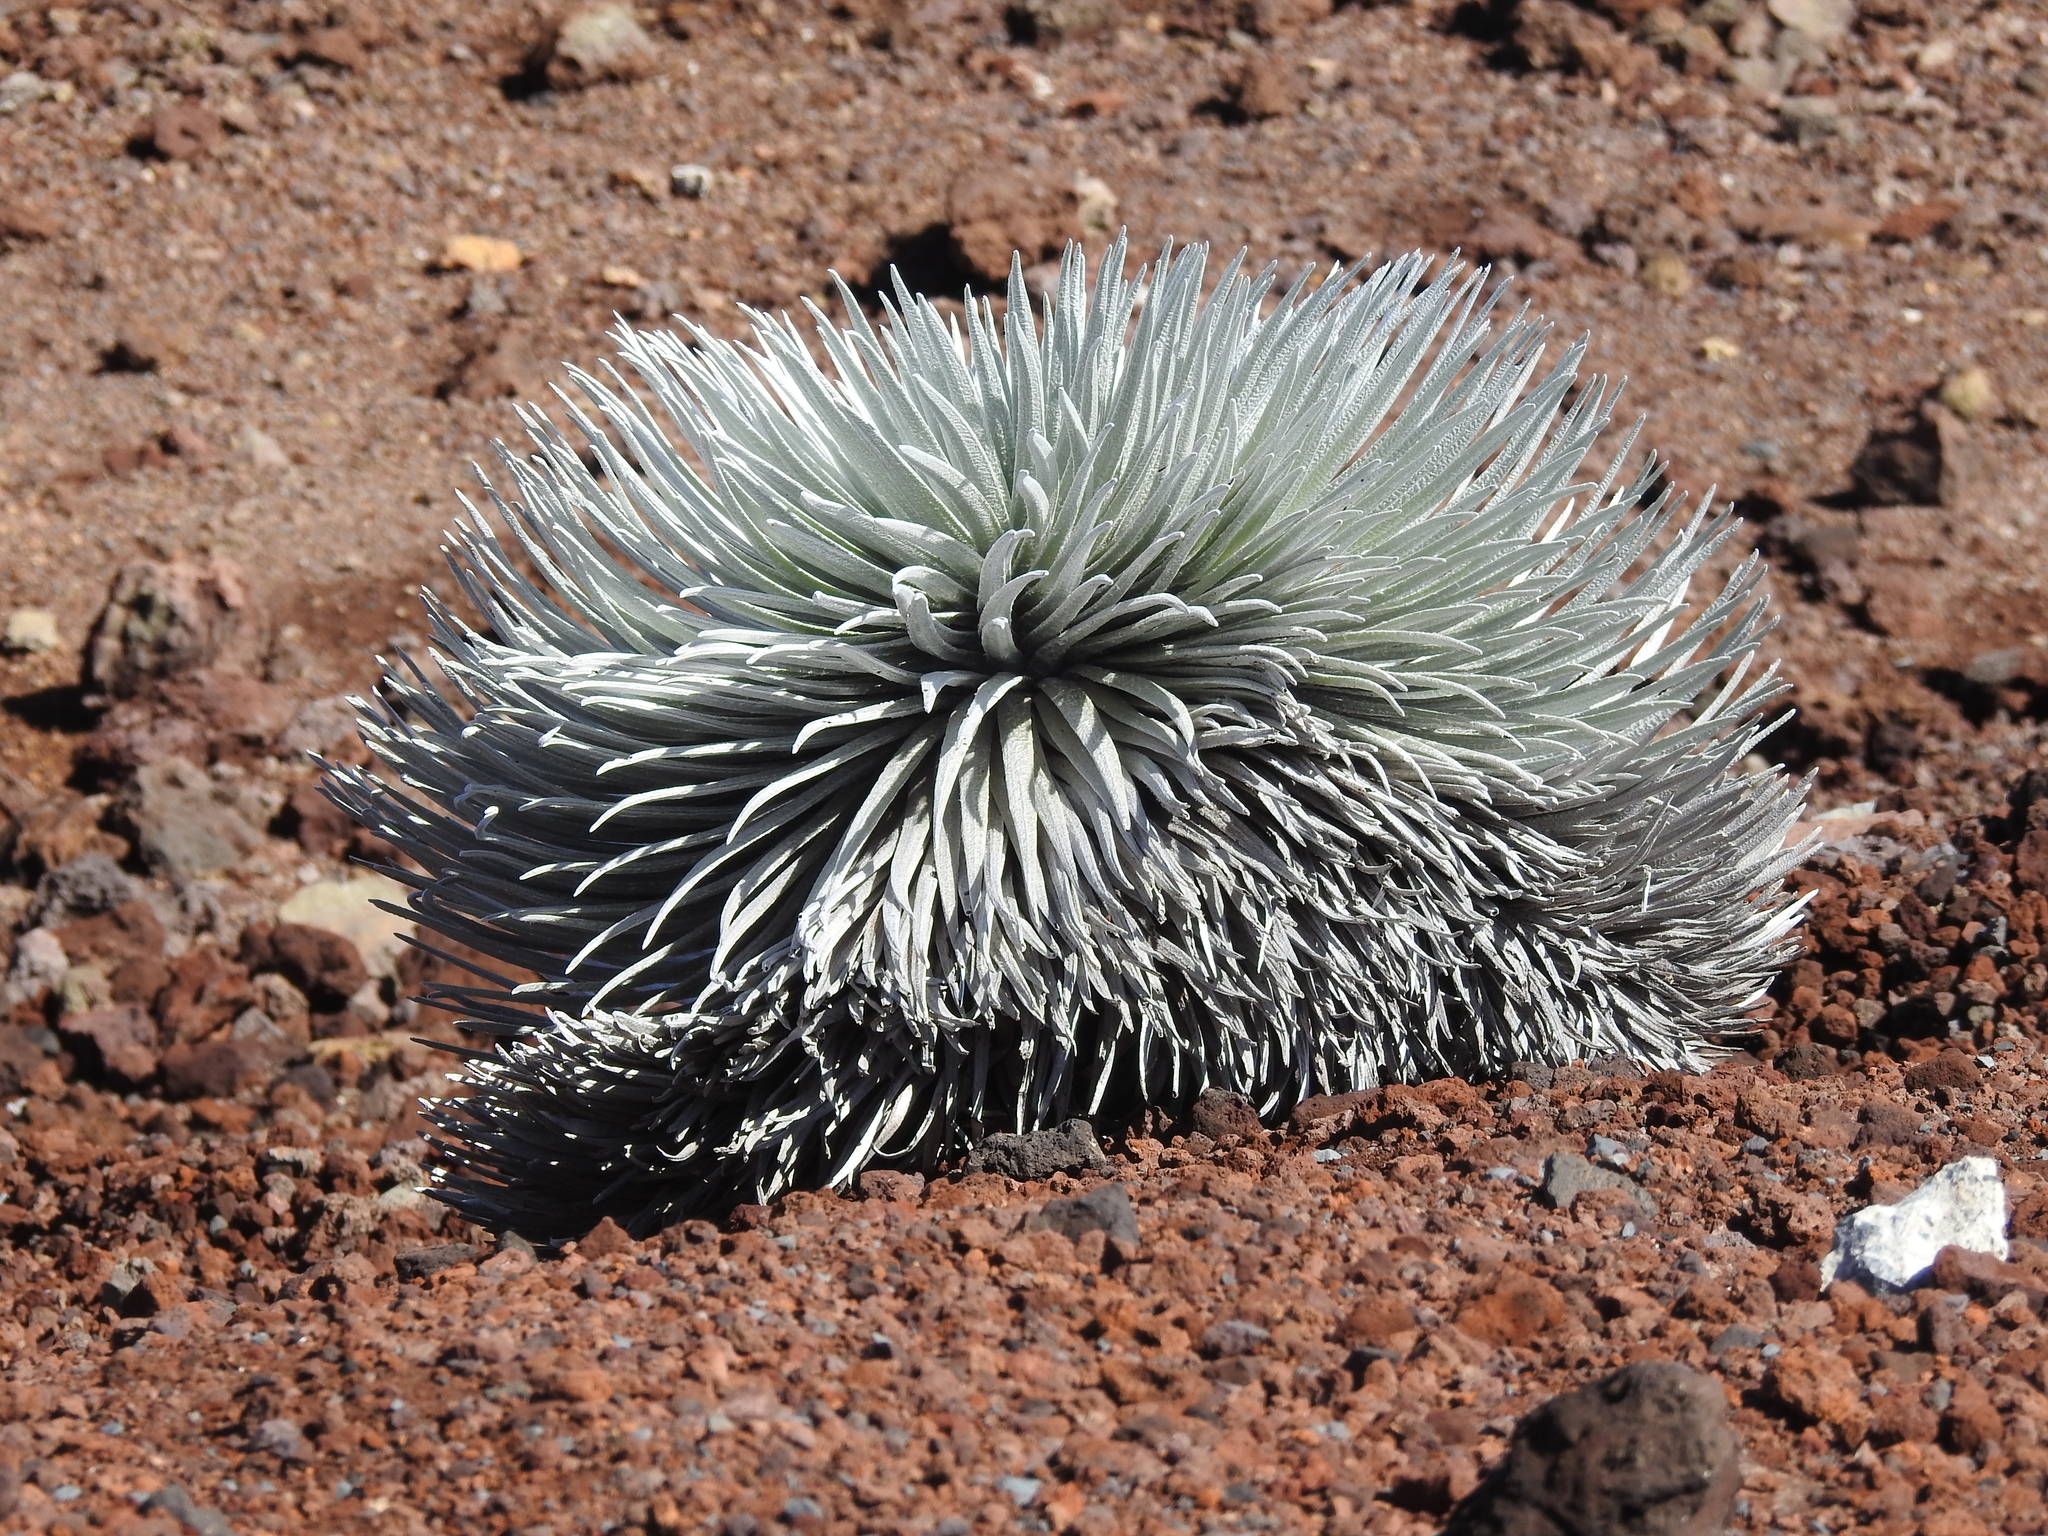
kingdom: Plantae
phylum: Tracheophyta
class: Magnoliopsida
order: Asterales
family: Asteraceae
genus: Argyroxiphium
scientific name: Argyroxiphium sandwicense
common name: Silversword
